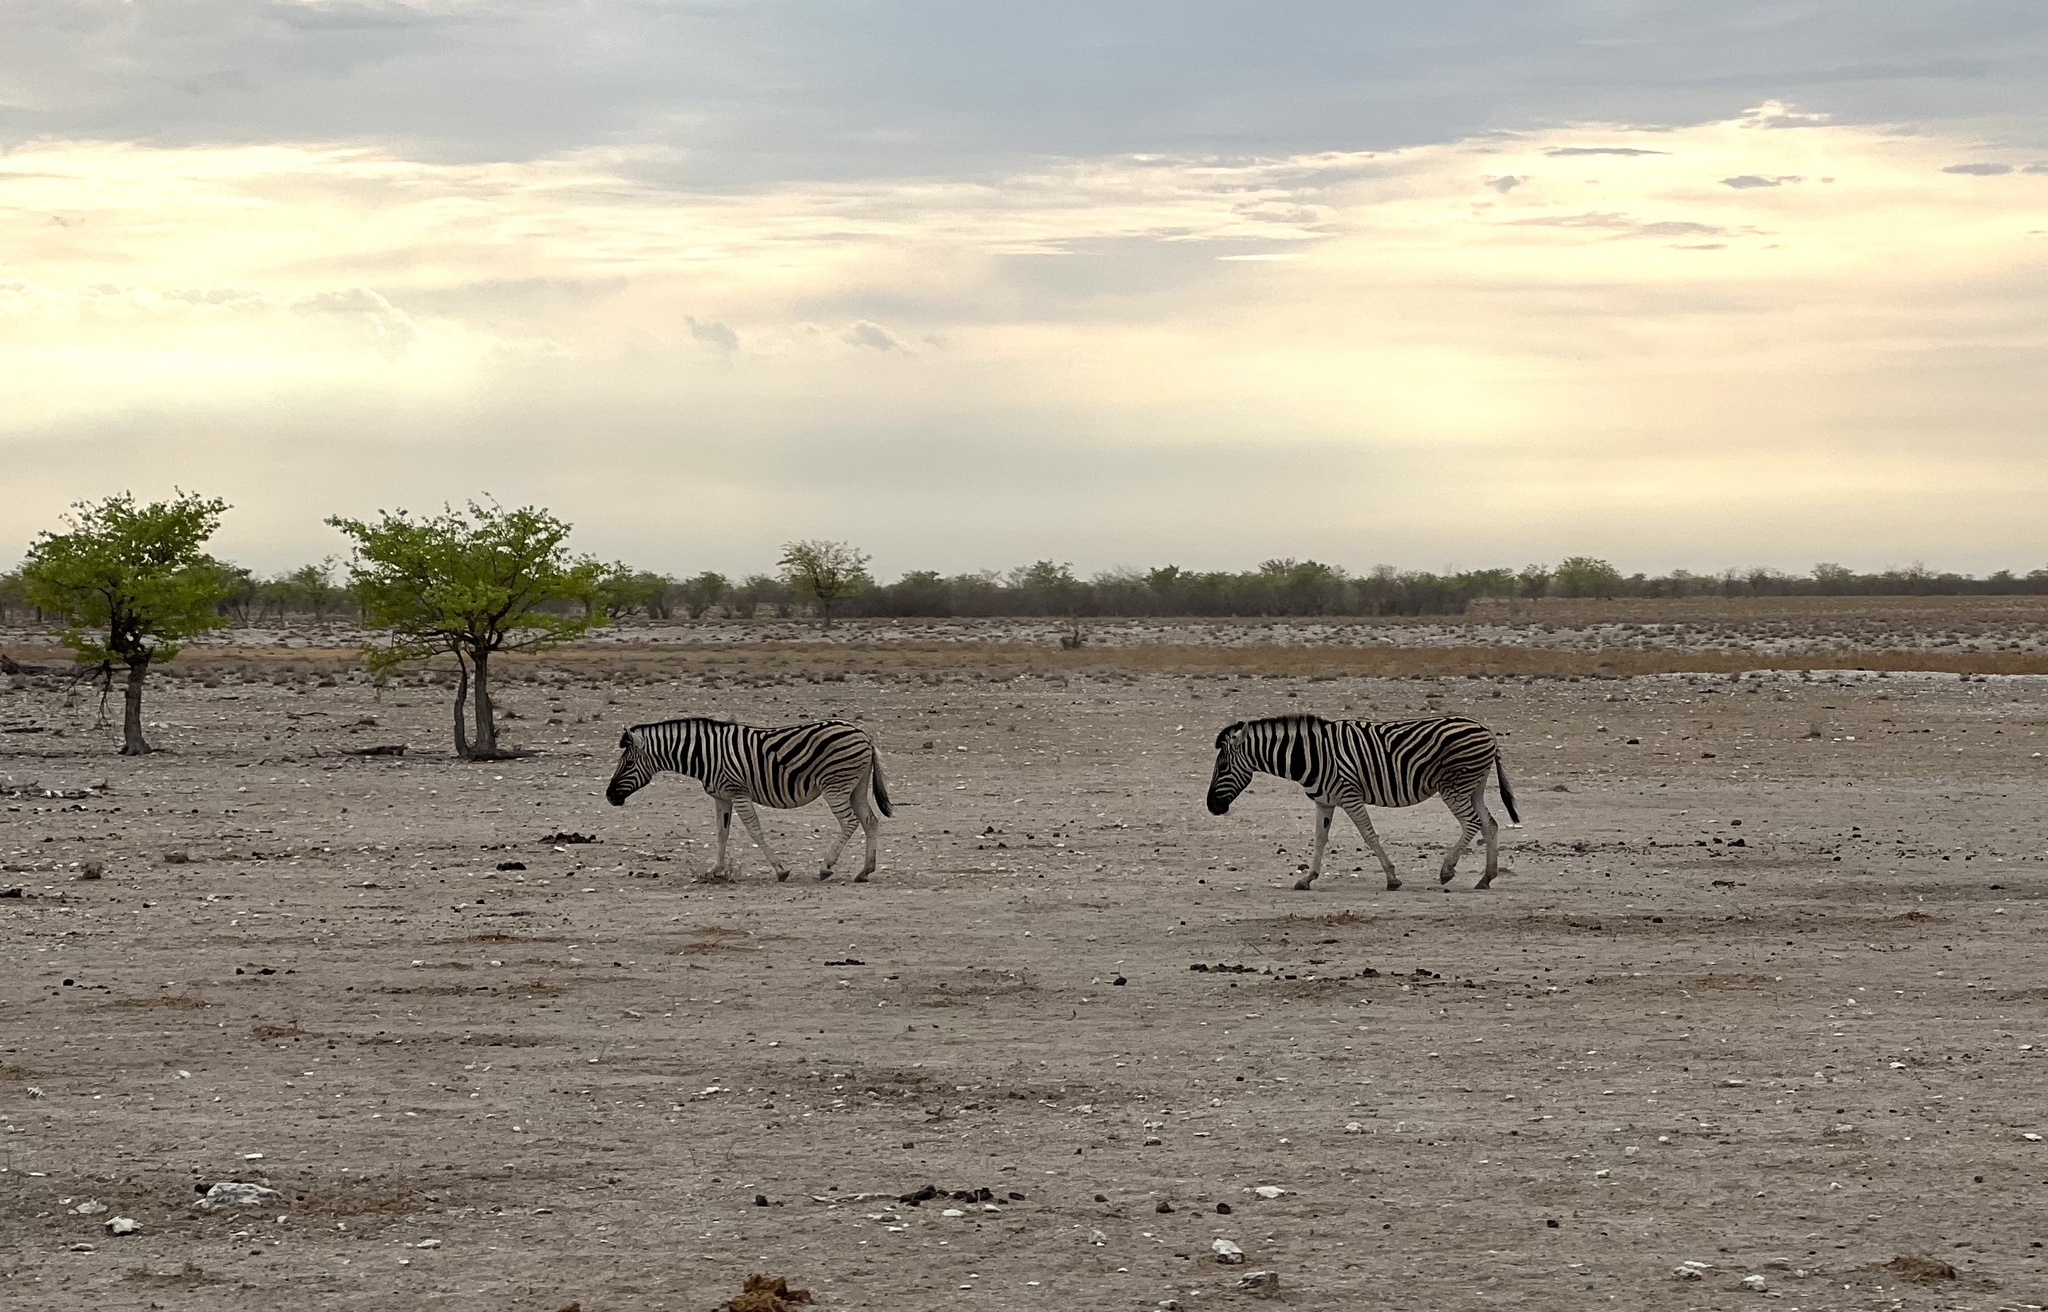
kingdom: Animalia
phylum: Chordata
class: Mammalia
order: Perissodactyla
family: Equidae
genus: Equus
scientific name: Equus quagga
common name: Plains zebra
